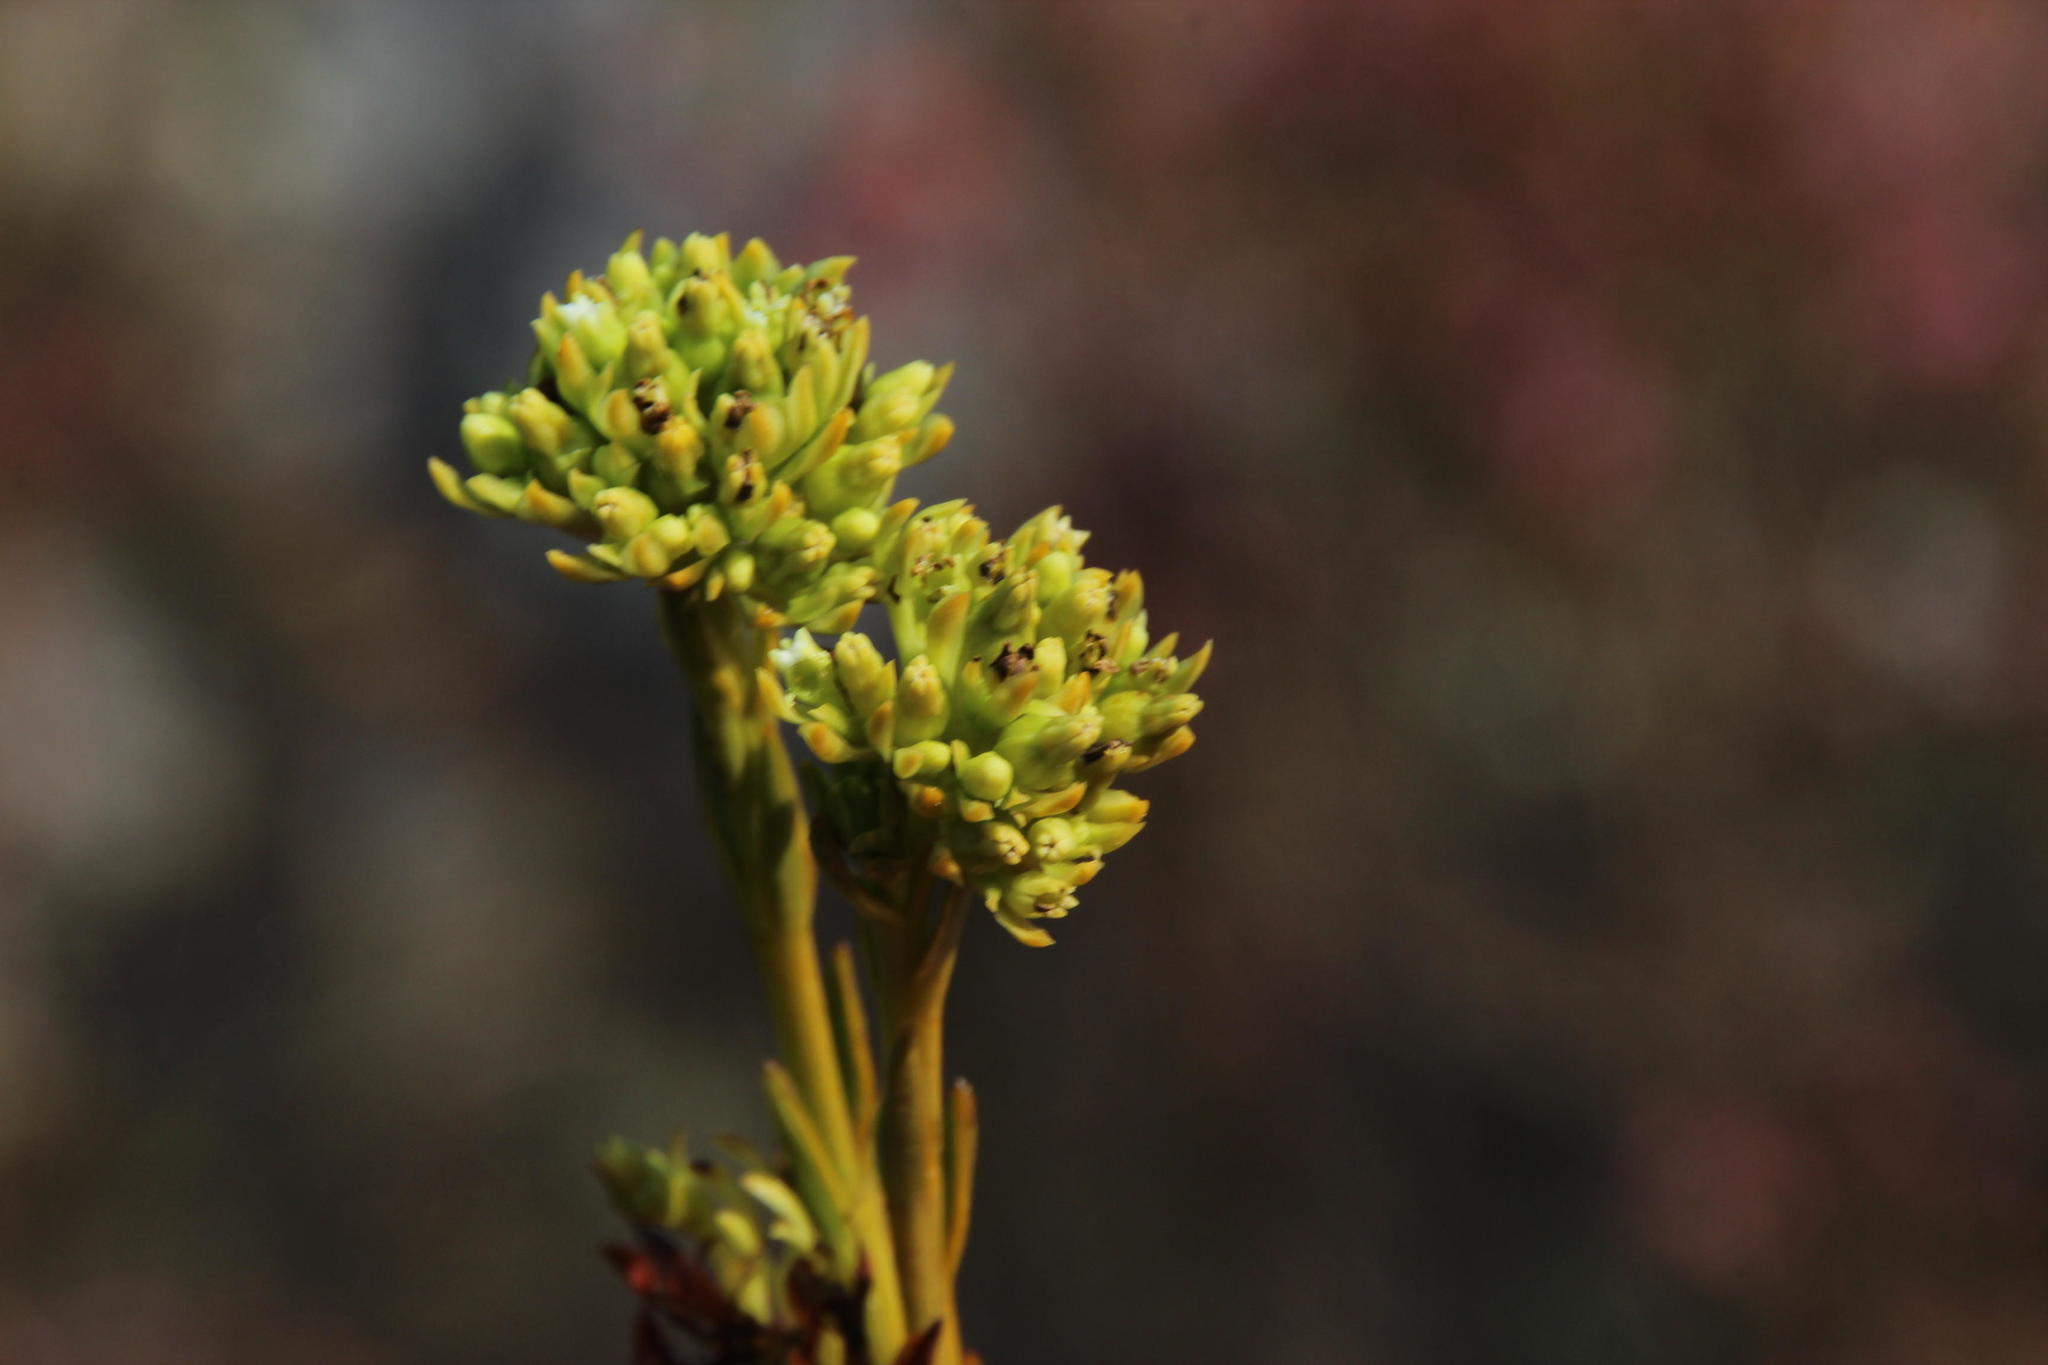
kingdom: Plantae
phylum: Tracheophyta
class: Magnoliopsida
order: Santalales
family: Thesiaceae
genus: Thesium
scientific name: Thesium fallax
